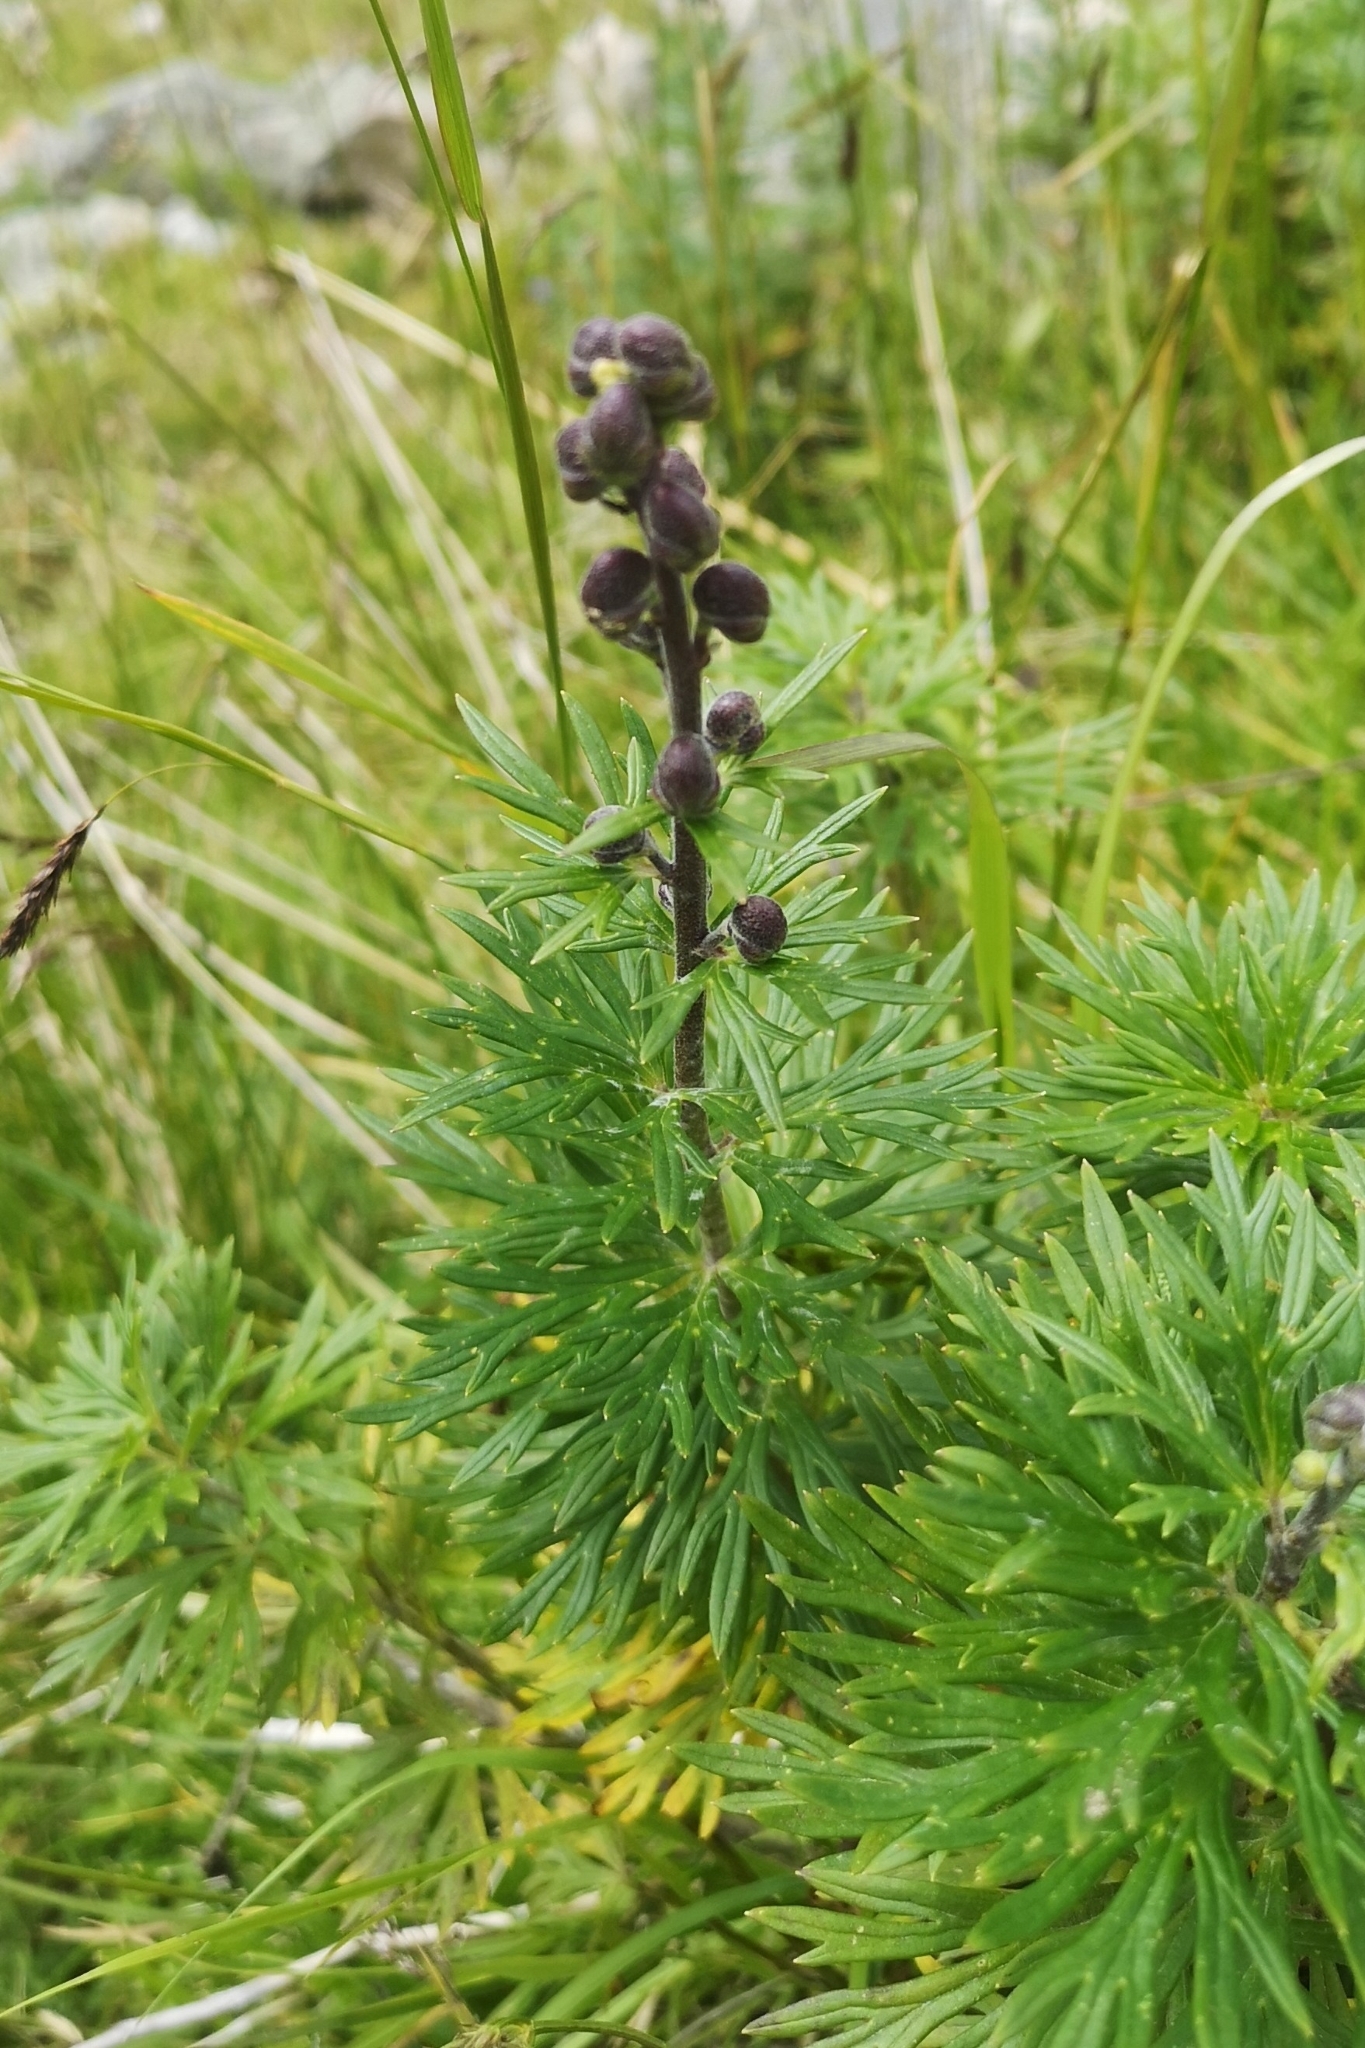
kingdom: Plantae
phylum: Tracheophyta
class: Magnoliopsida
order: Ranunculales
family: Ranunculaceae
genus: Aconitum
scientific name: Aconitum napellus
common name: Garden monkshood
